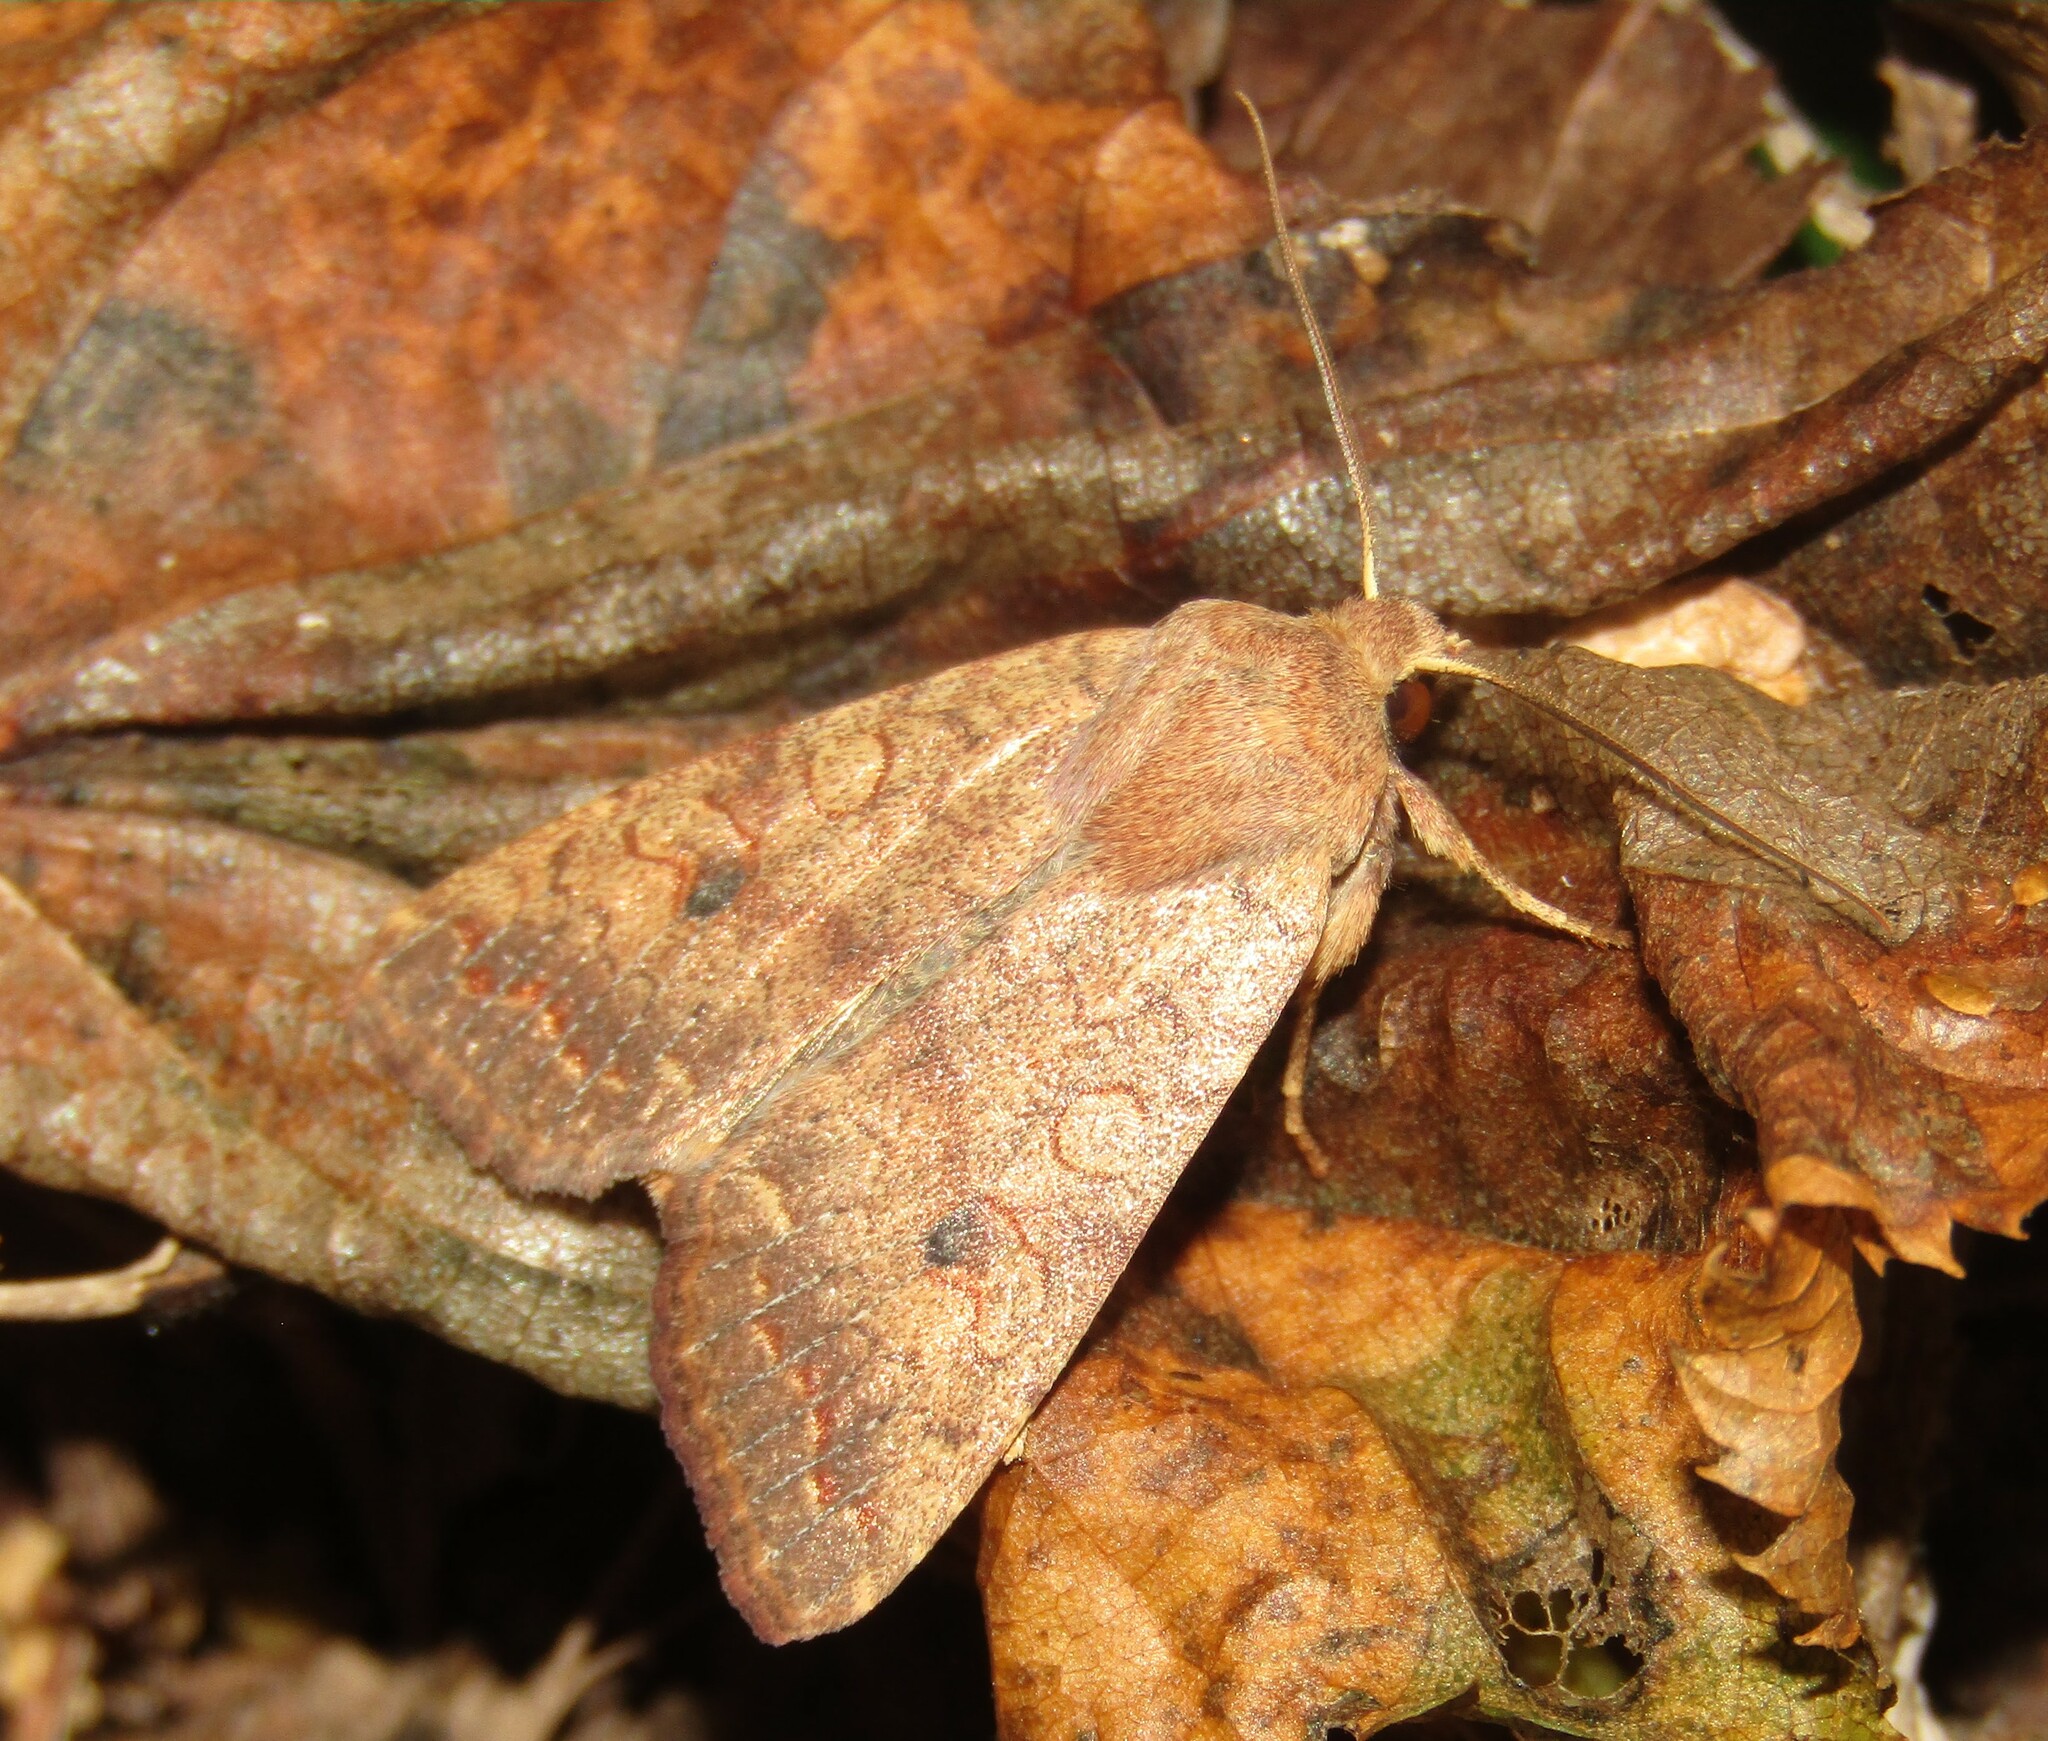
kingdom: Animalia
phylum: Arthropoda
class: Insecta
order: Lepidoptera
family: Noctuidae
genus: Sunira
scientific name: Sunira circellaris
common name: Brick
